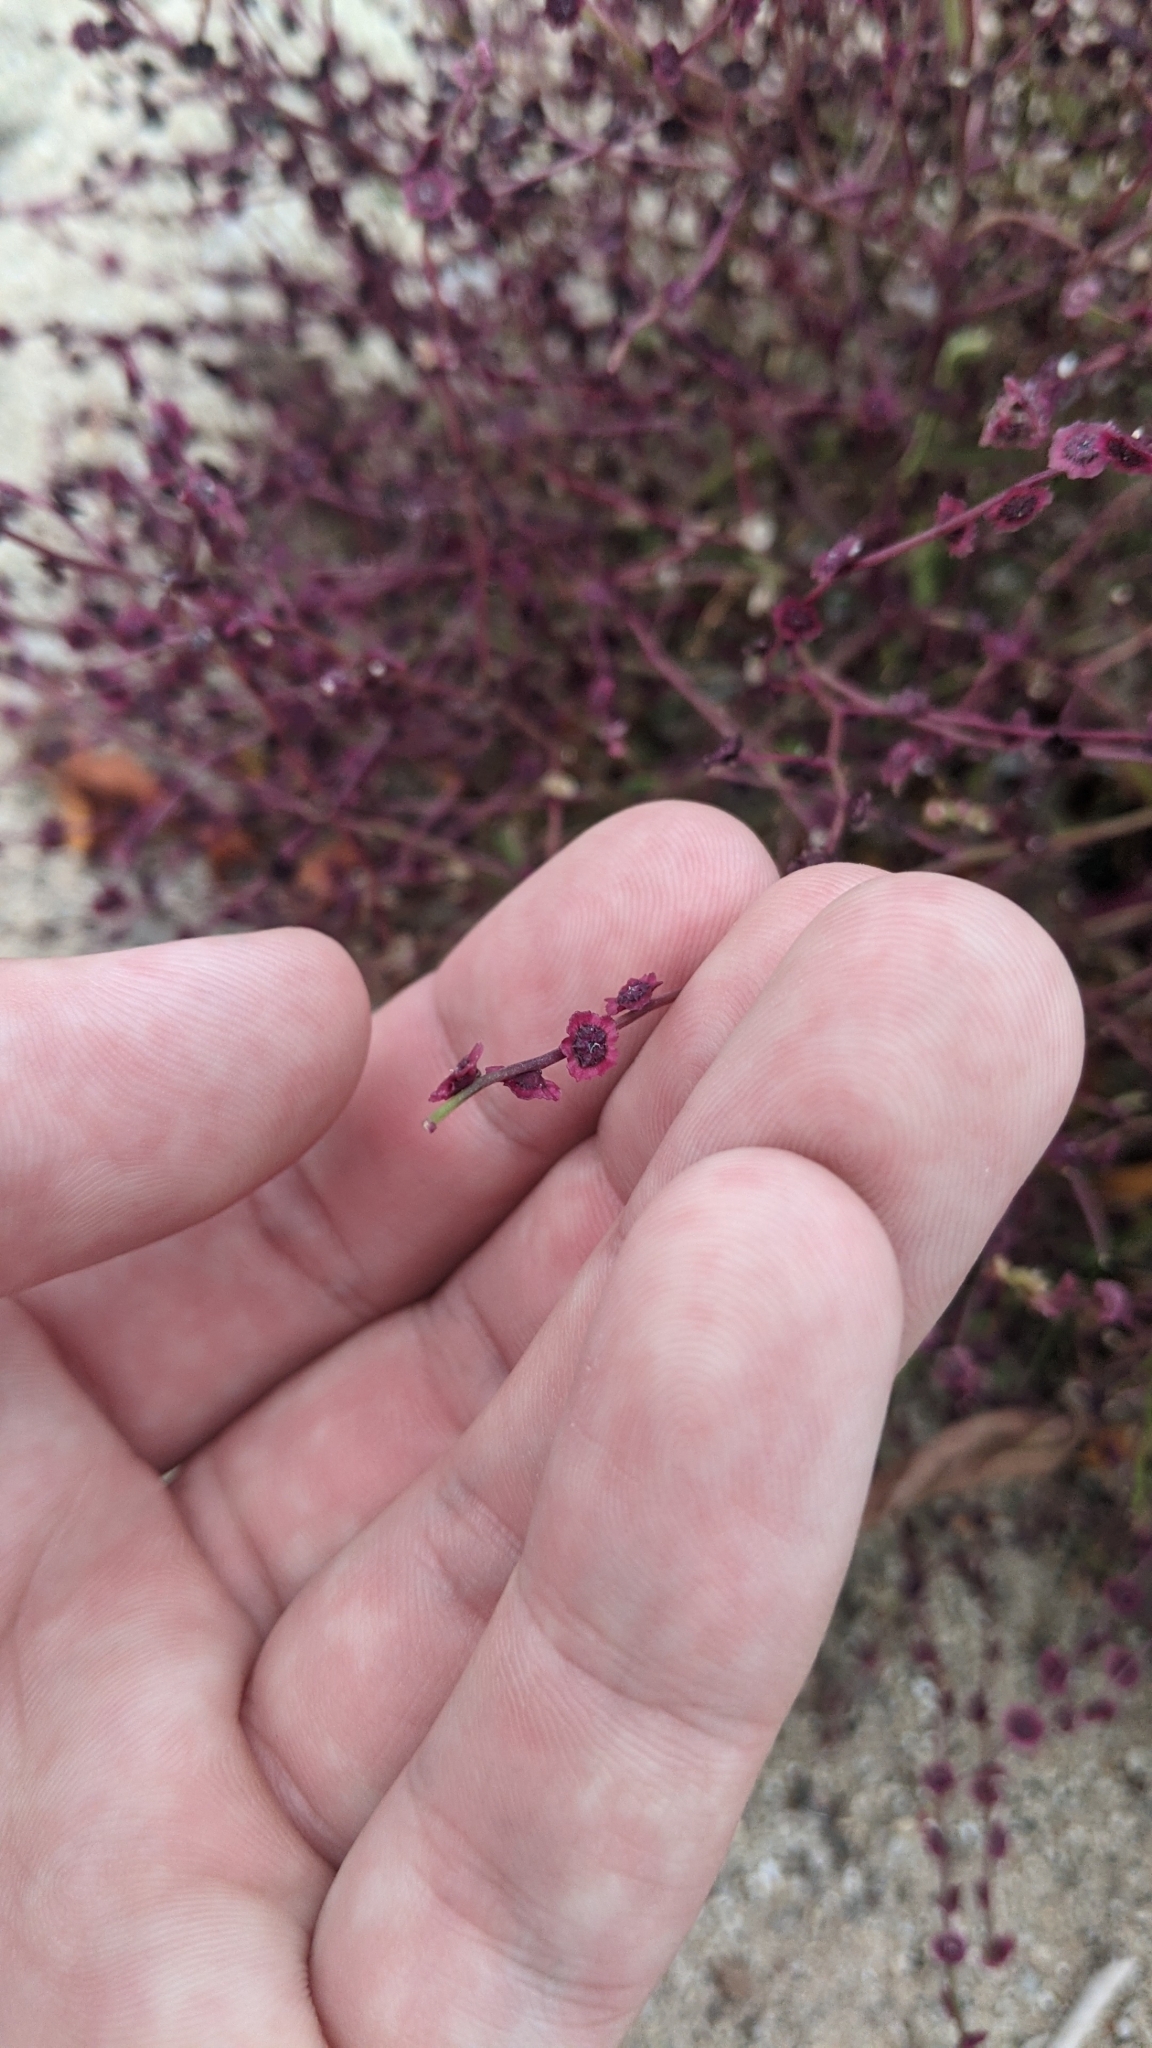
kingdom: Plantae
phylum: Tracheophyta
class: Magnoliopsida
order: Caryophyllales
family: Amaranthaceae
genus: Dysphania
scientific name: Dysphania atriplicifolia
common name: Plains tumbleweed
